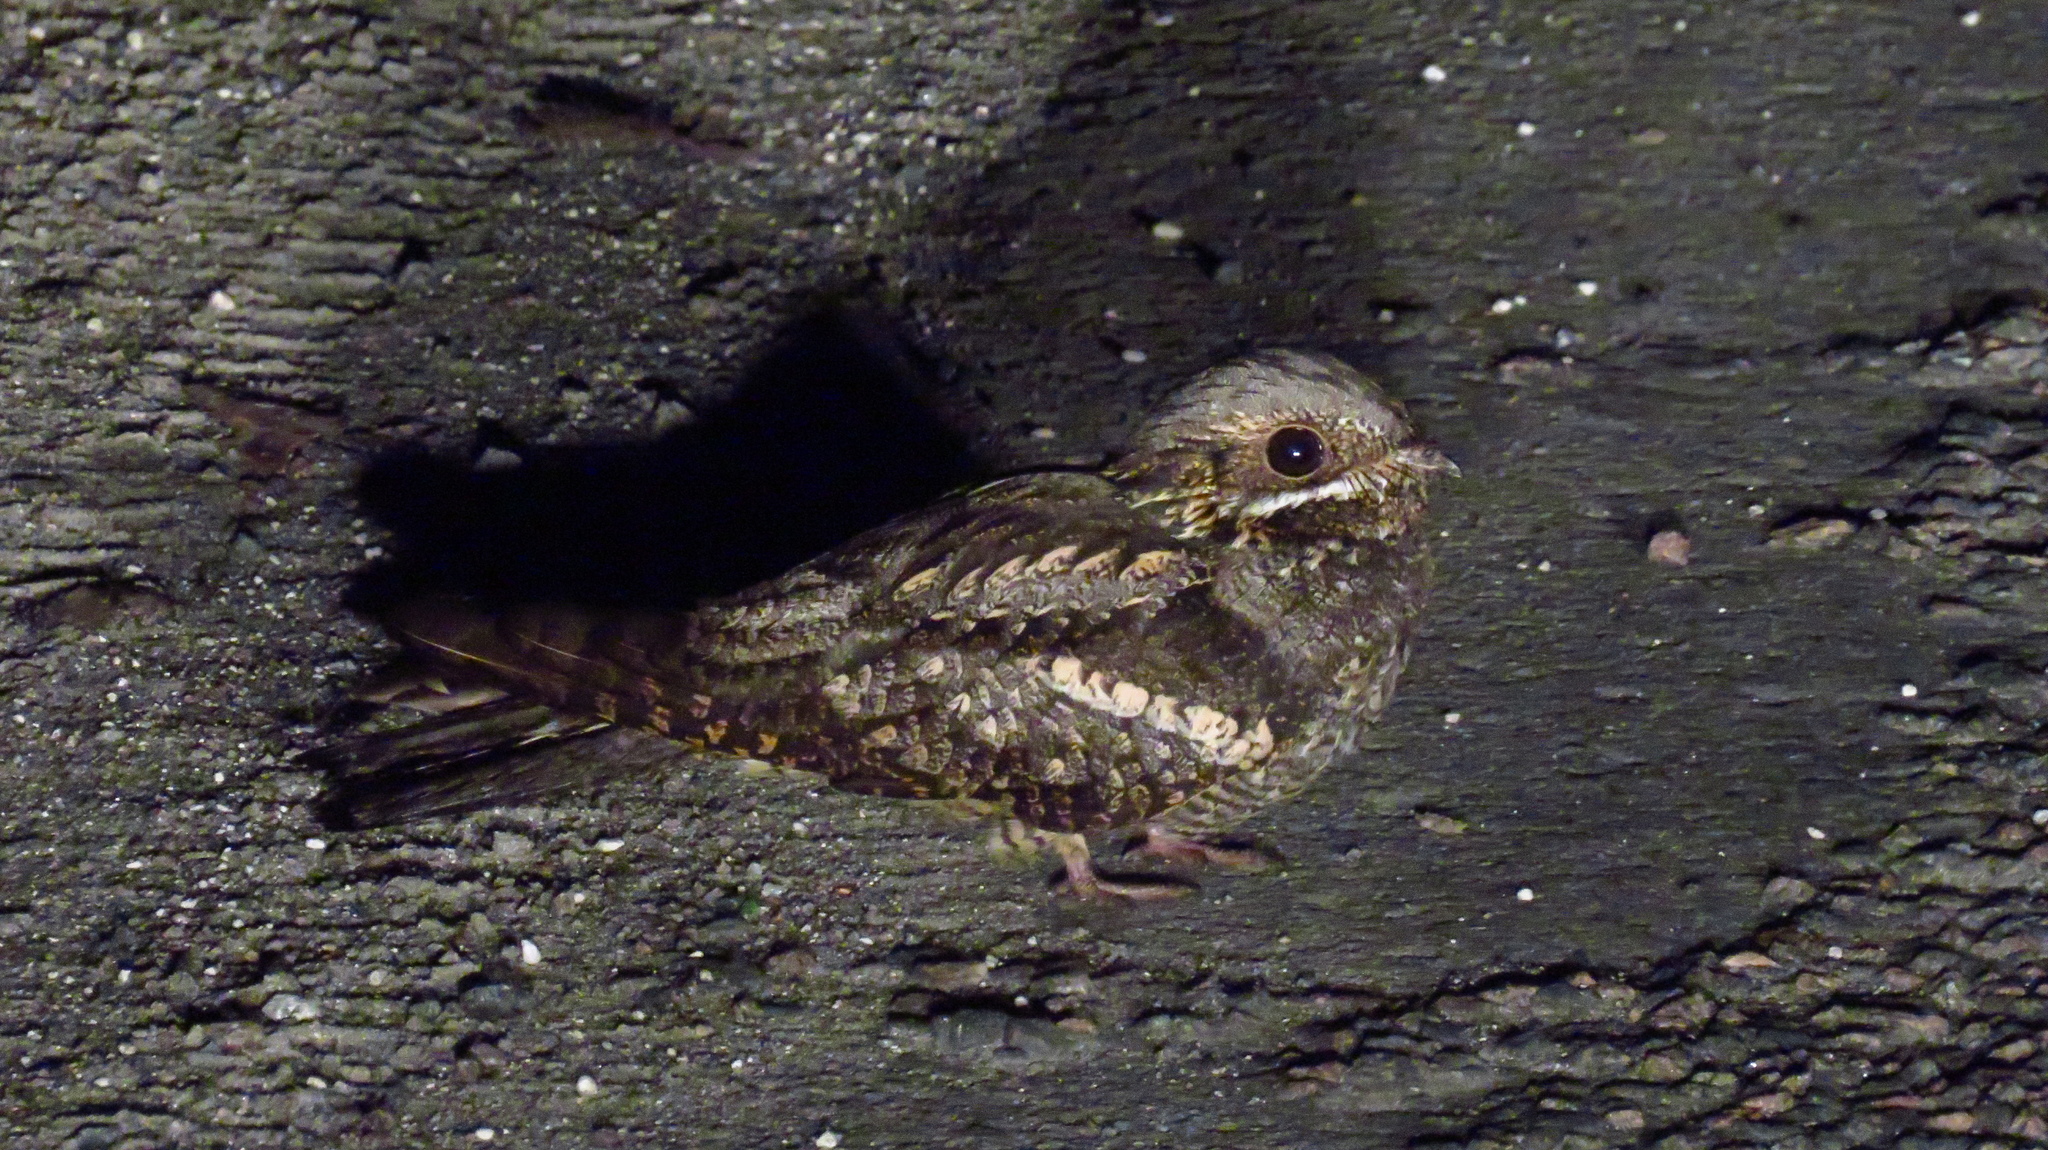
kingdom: Animalia
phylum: Chordata
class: Aves
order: Caprimulgiformes
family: Caprimulgidae
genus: Caprimulgus
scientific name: Caprimulgus europaeus
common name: European nightjar
